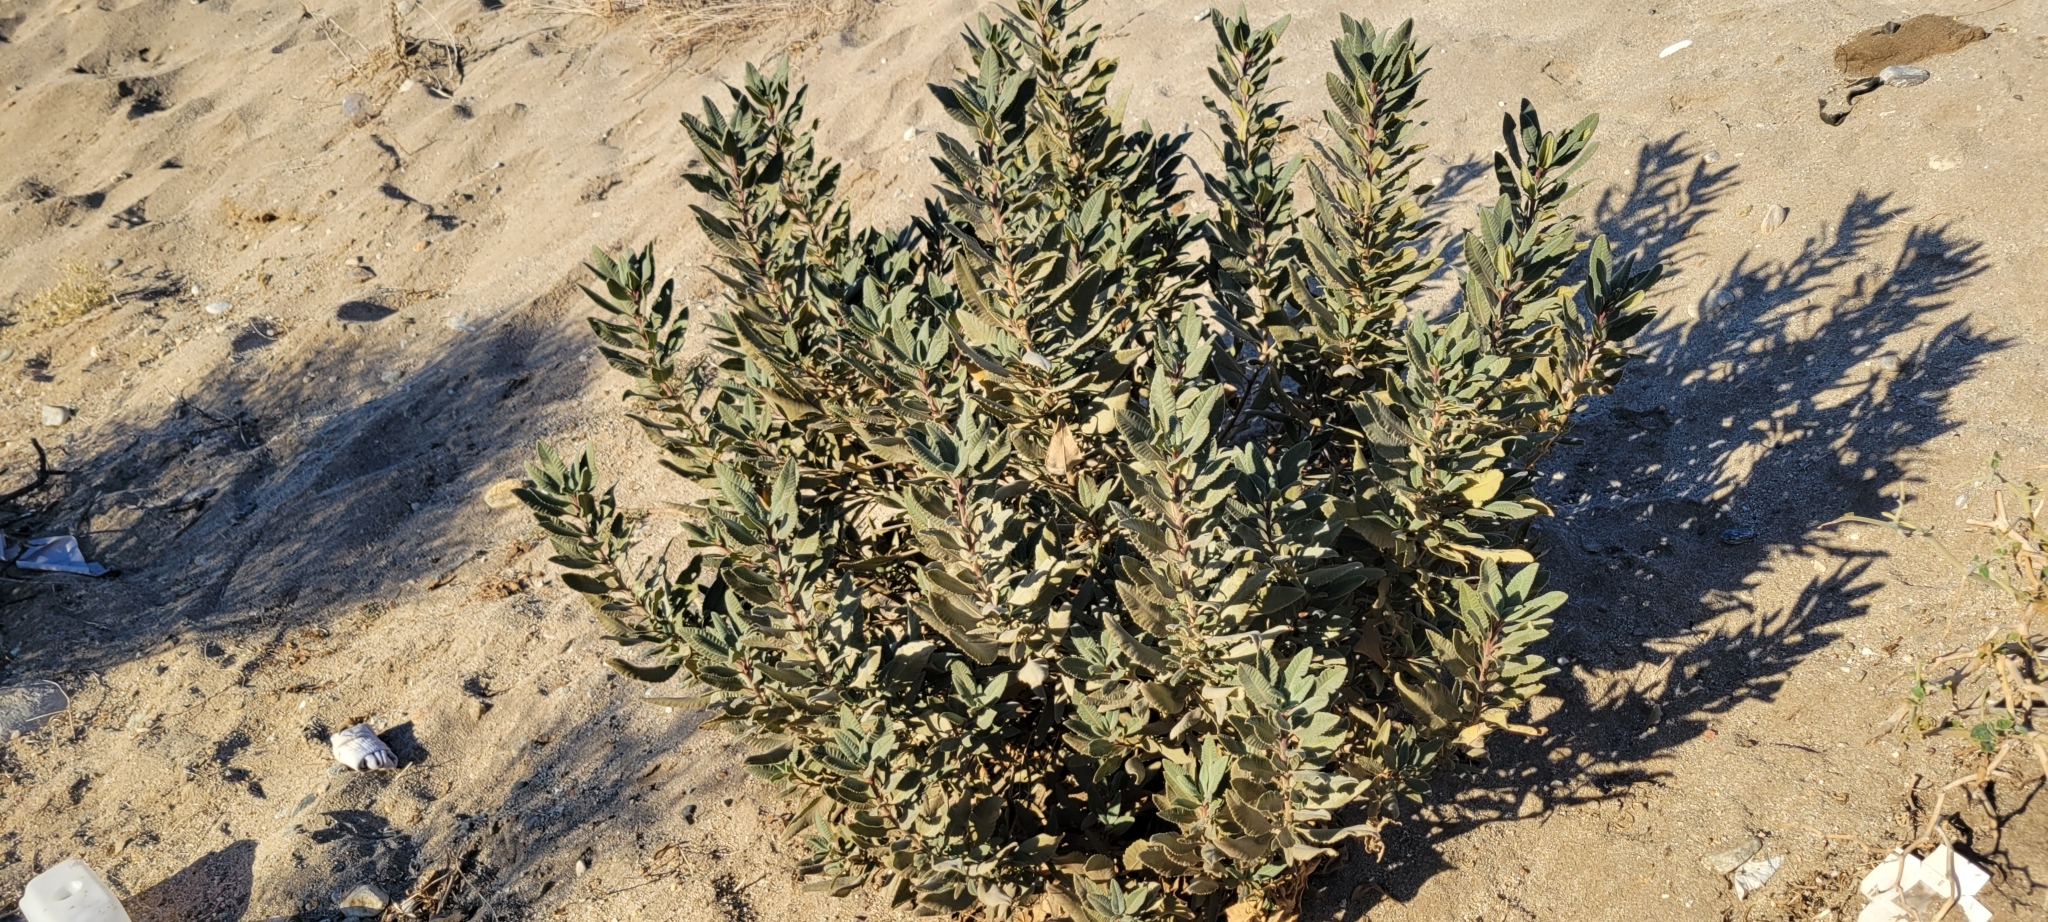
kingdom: Plantae
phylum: Tracheophyta
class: Magnoliopsida
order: Boraginales
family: Namaceae
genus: Eriodictyon
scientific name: Eriodictyon crassifolium
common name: Thick-leaf yerba-santa
